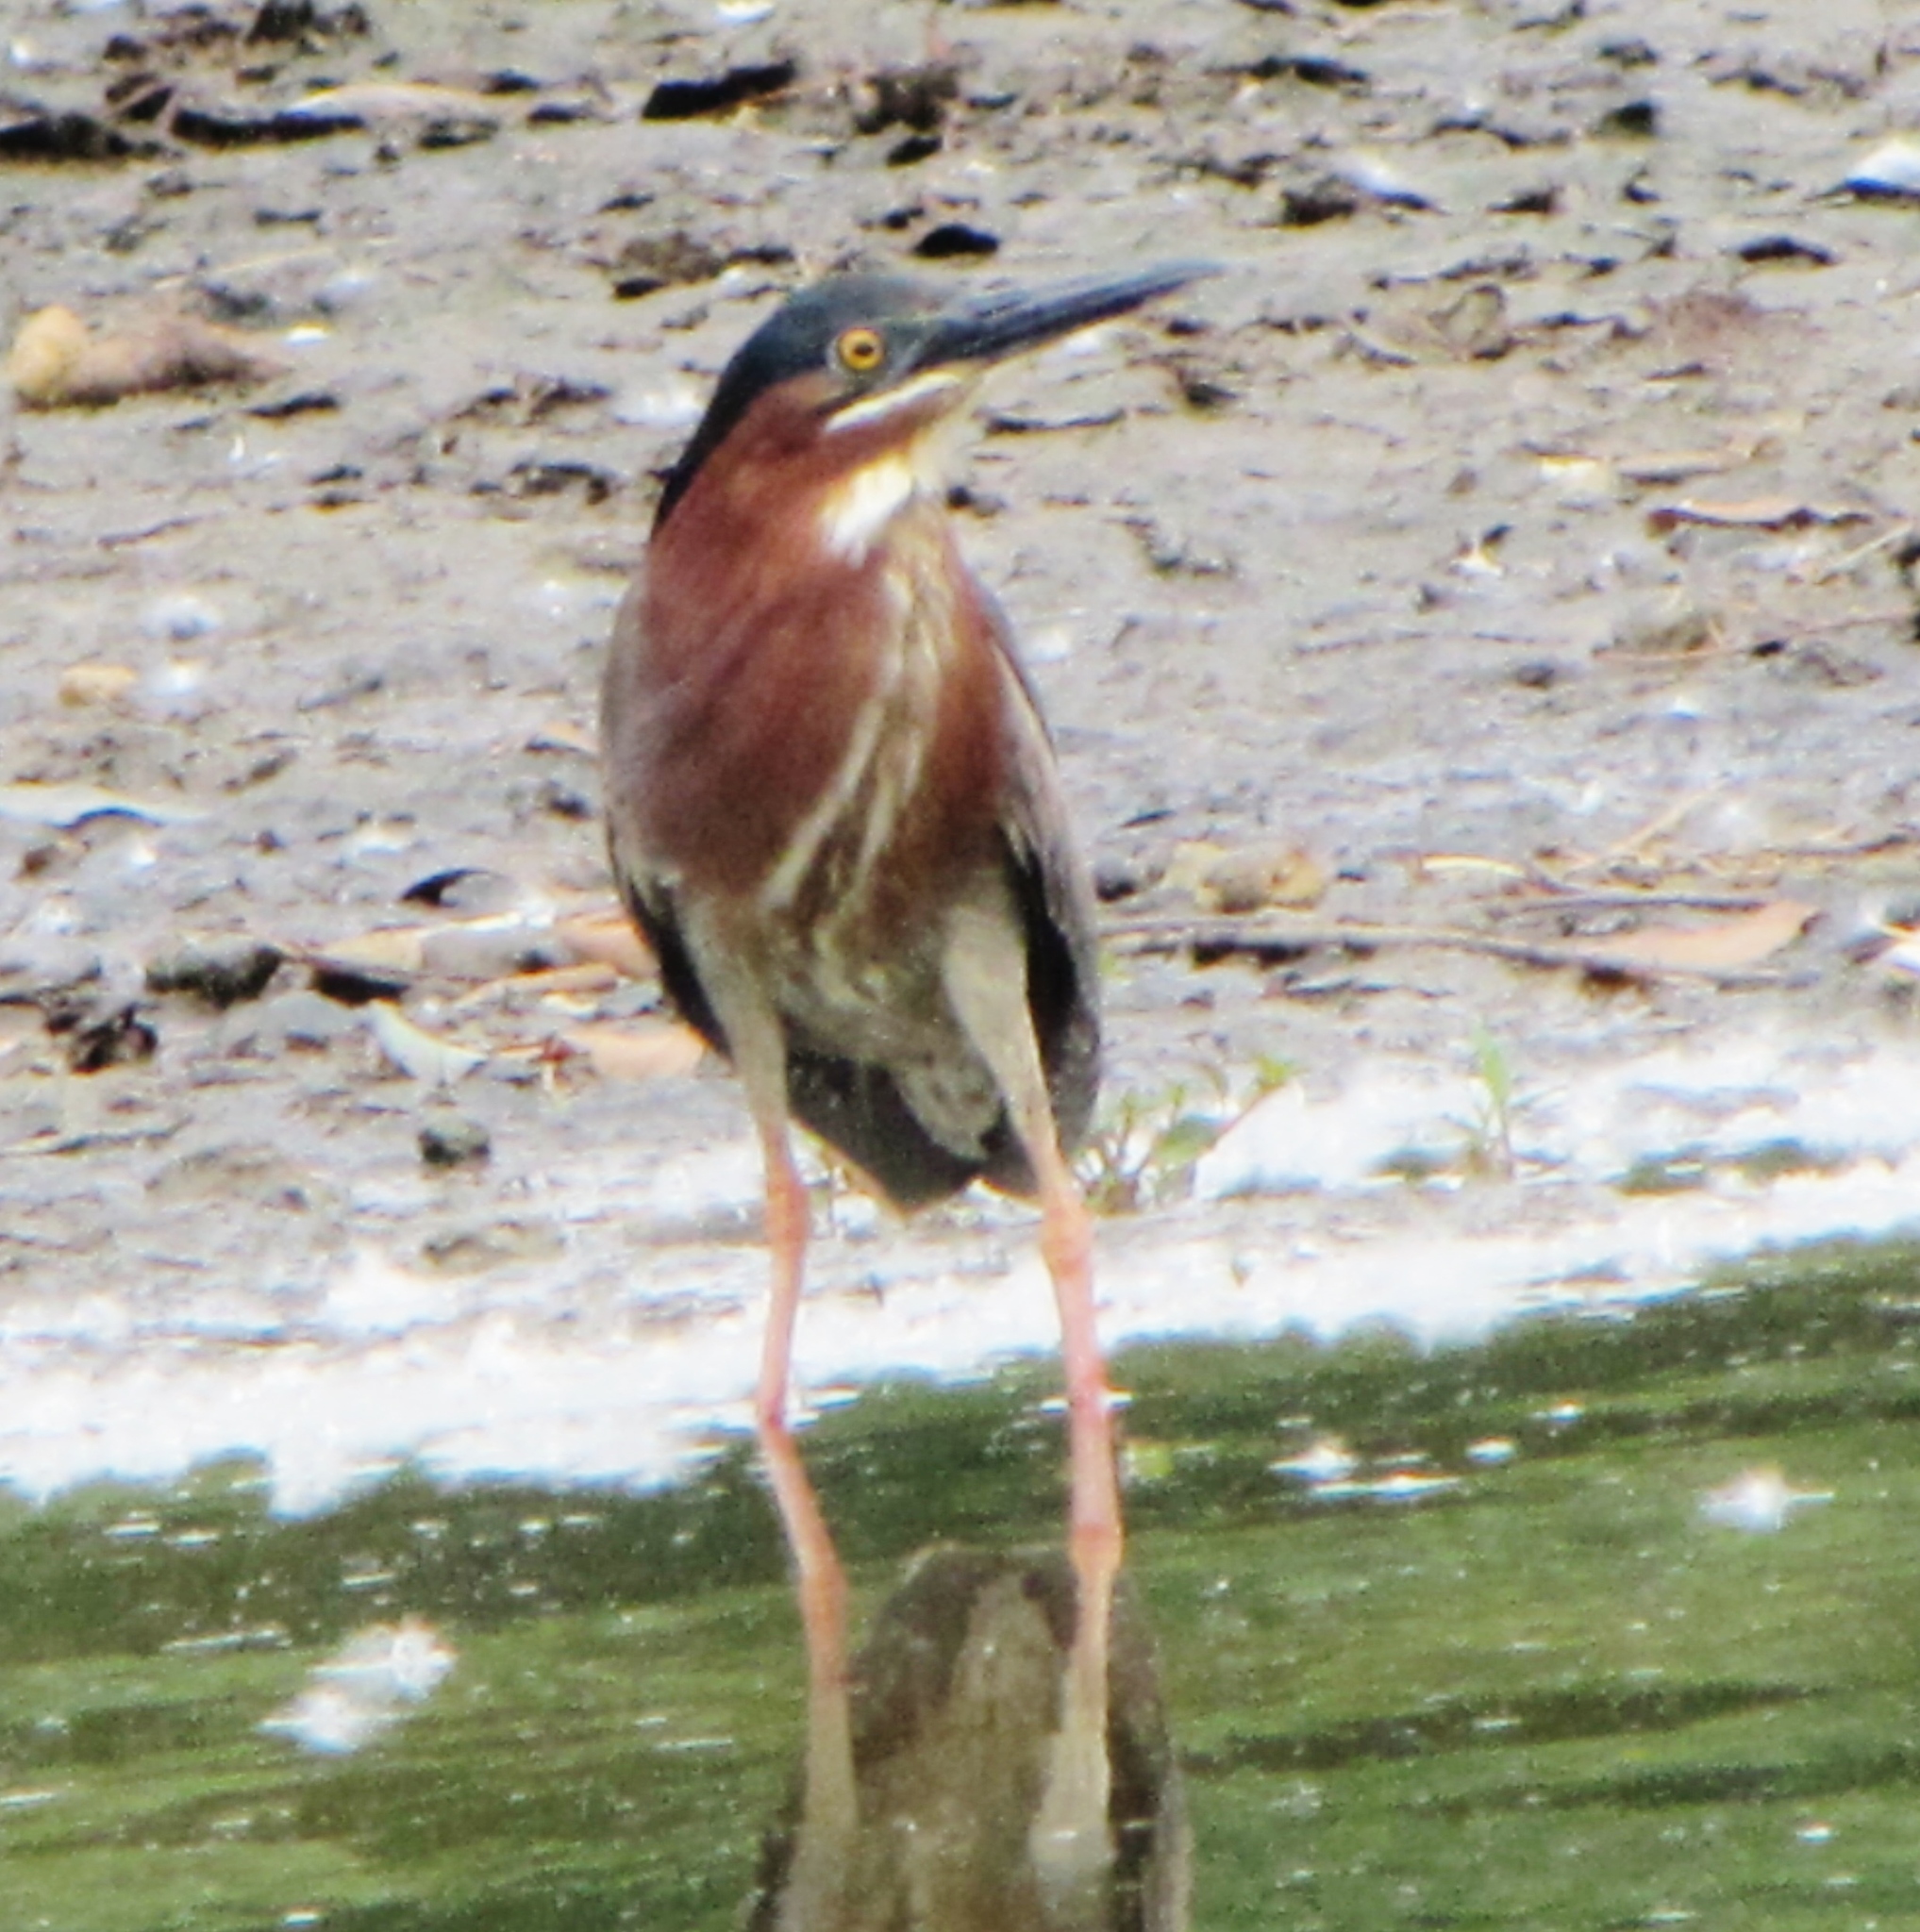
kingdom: Animalia
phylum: Chordata
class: Aves
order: Pelecaniformes
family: Ardeidae
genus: Butorides
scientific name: Butorides virescens
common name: Green heron
